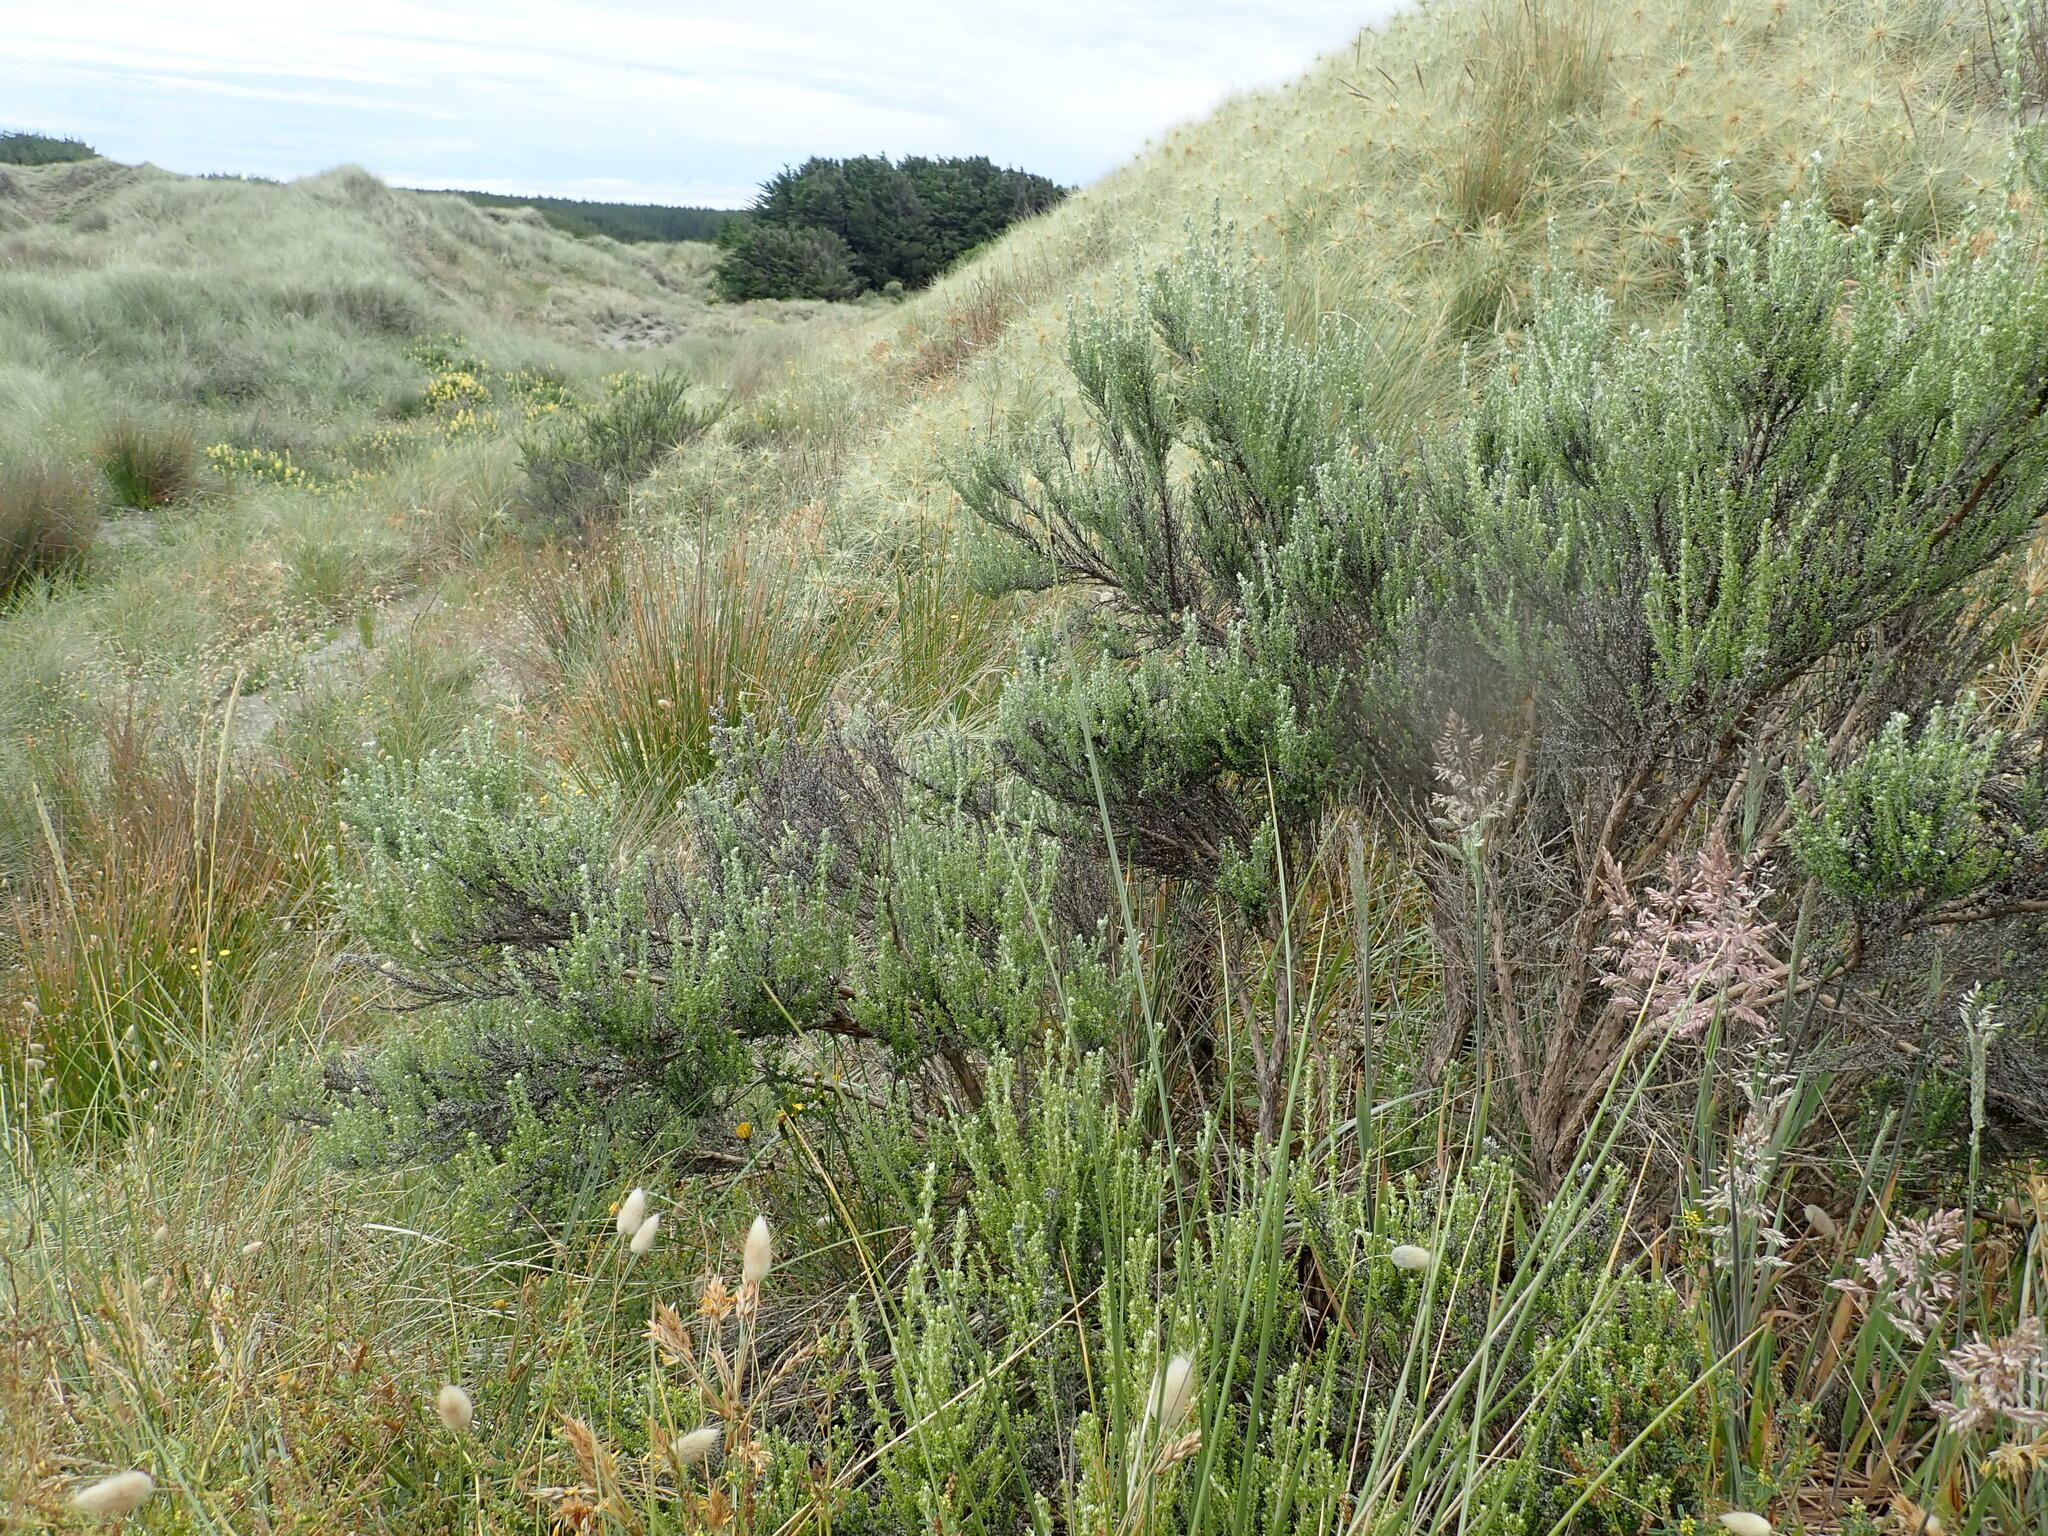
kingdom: Plantae
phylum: Tracheophyta
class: Magnoliopsida
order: Asterales
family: Asteraceae
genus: Ozothamnus
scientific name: Ozothamnus leptophyllus
